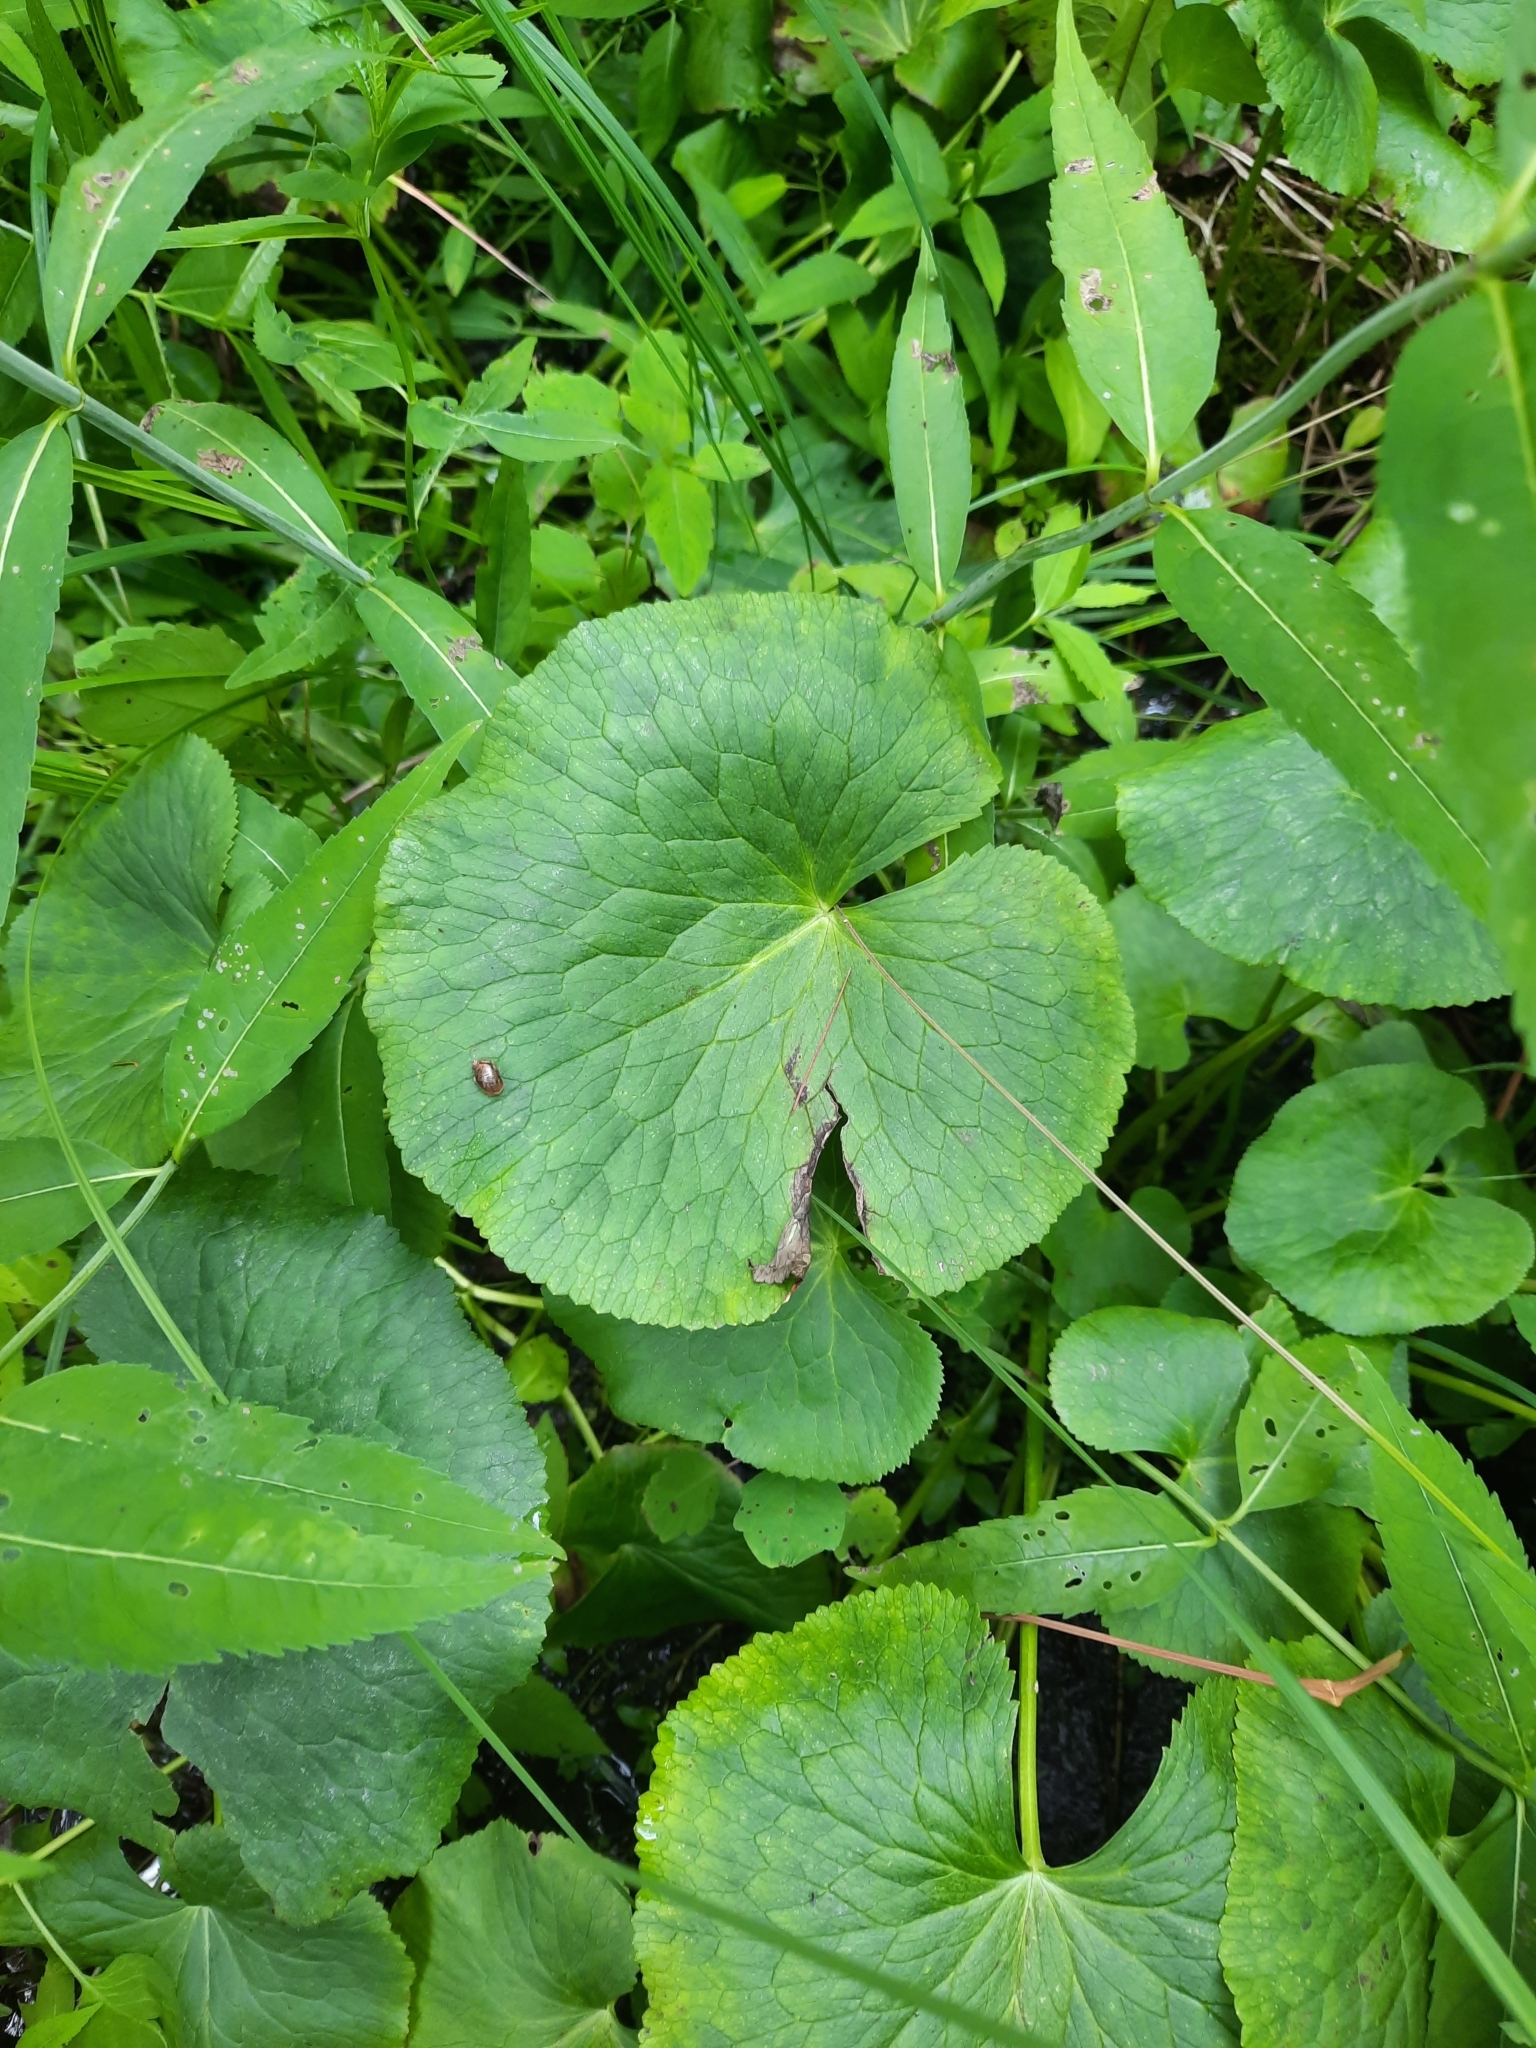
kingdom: Plantae
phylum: Tracheophyta
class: Magnoliopsida
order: Ranunculales
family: Ranunculaceae
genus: Caltha
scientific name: Caltha palustris
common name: Marsh marigold
